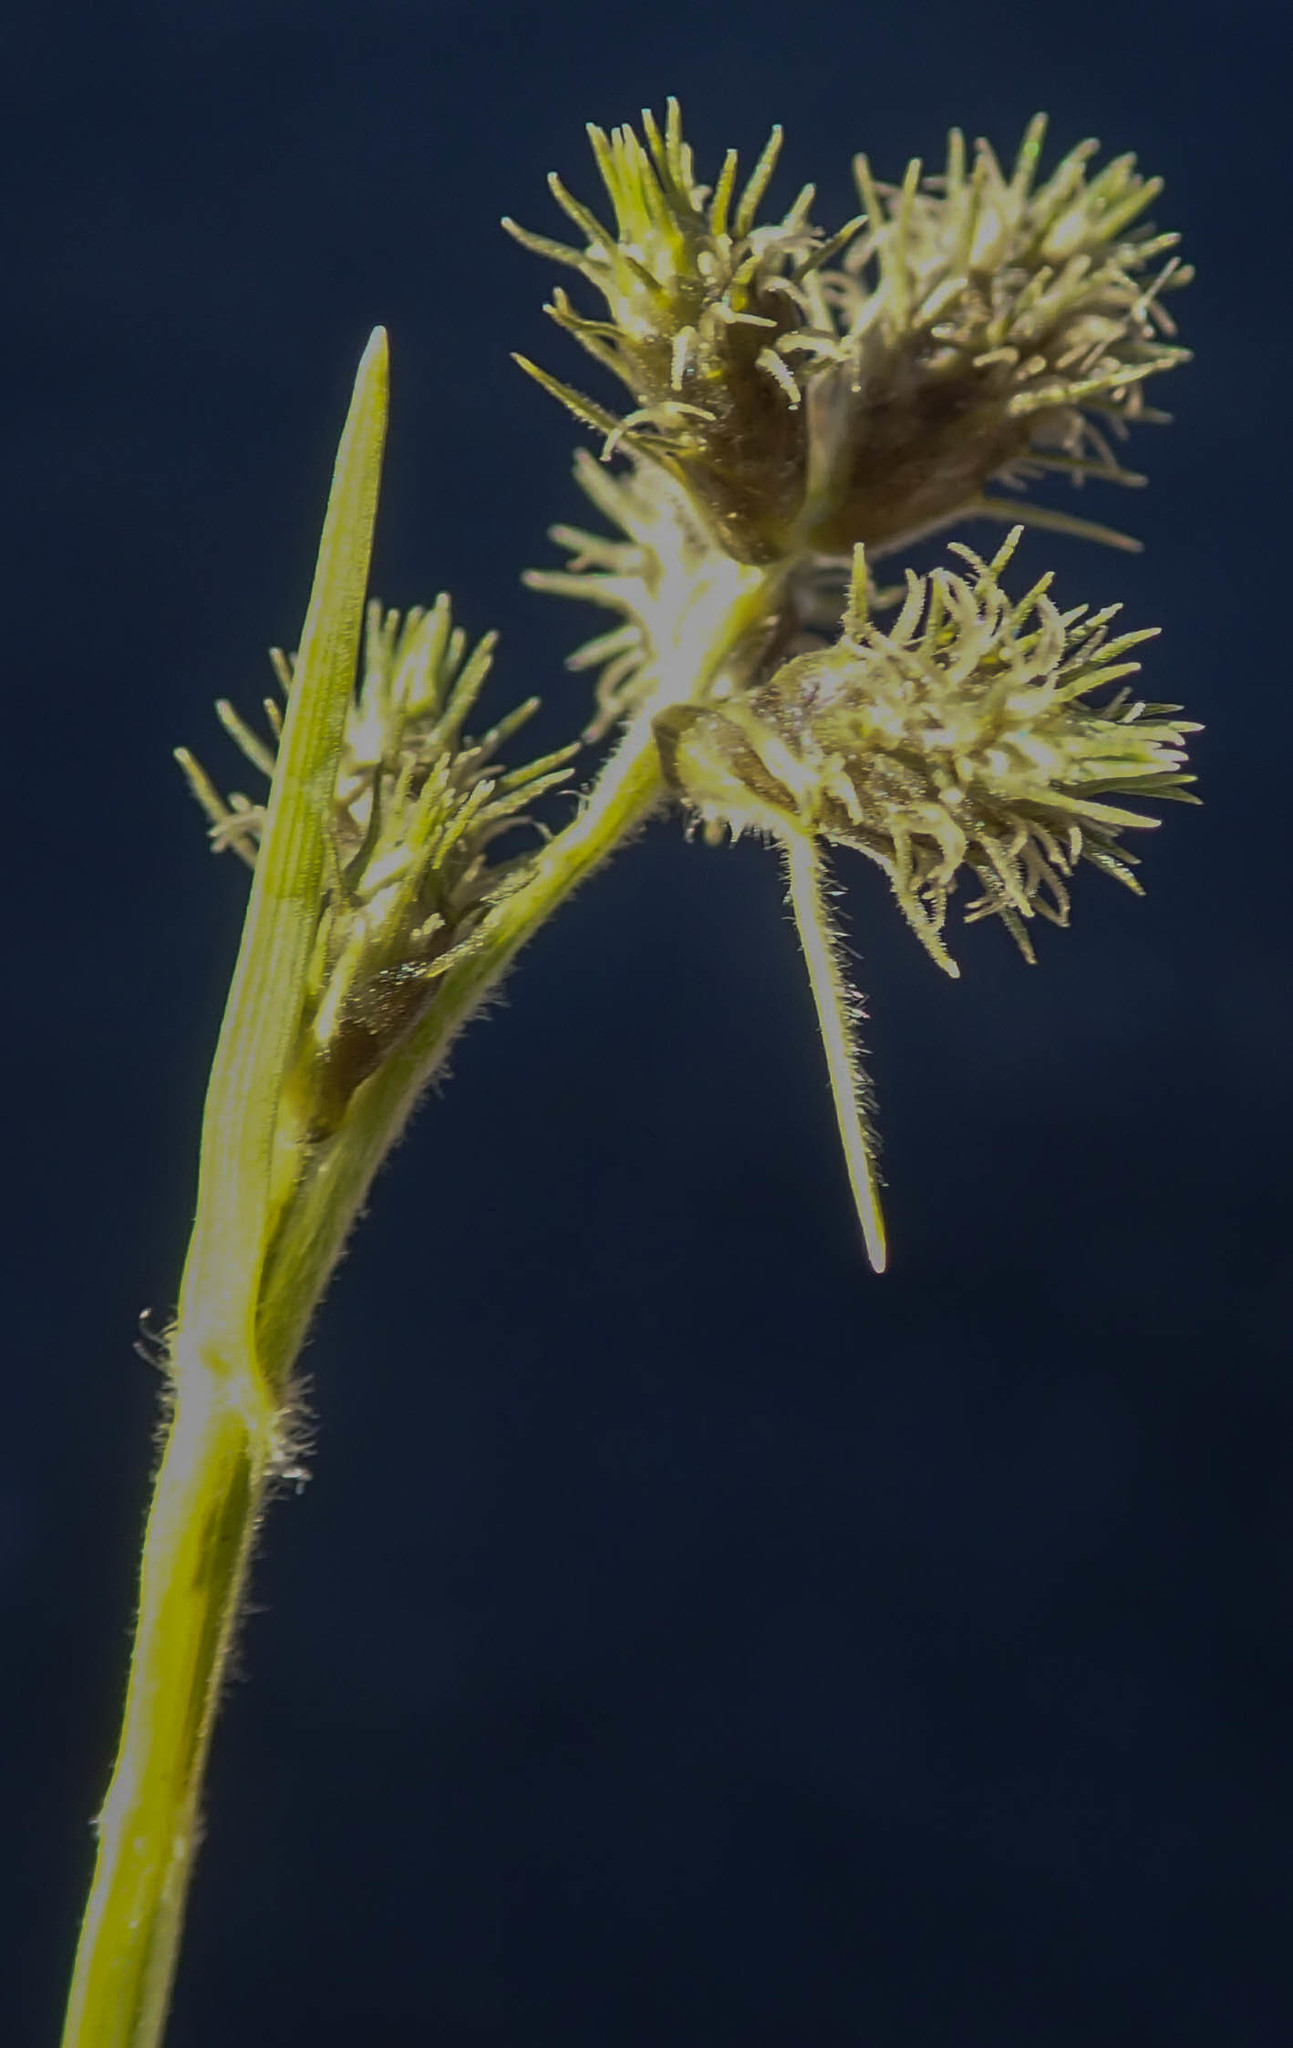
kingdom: Plantae
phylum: Tracheophyta
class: Liliopsida
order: Poales
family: Cyperaceae
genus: Fuirena
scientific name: Fuirena pubescens
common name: Hairy sedge
